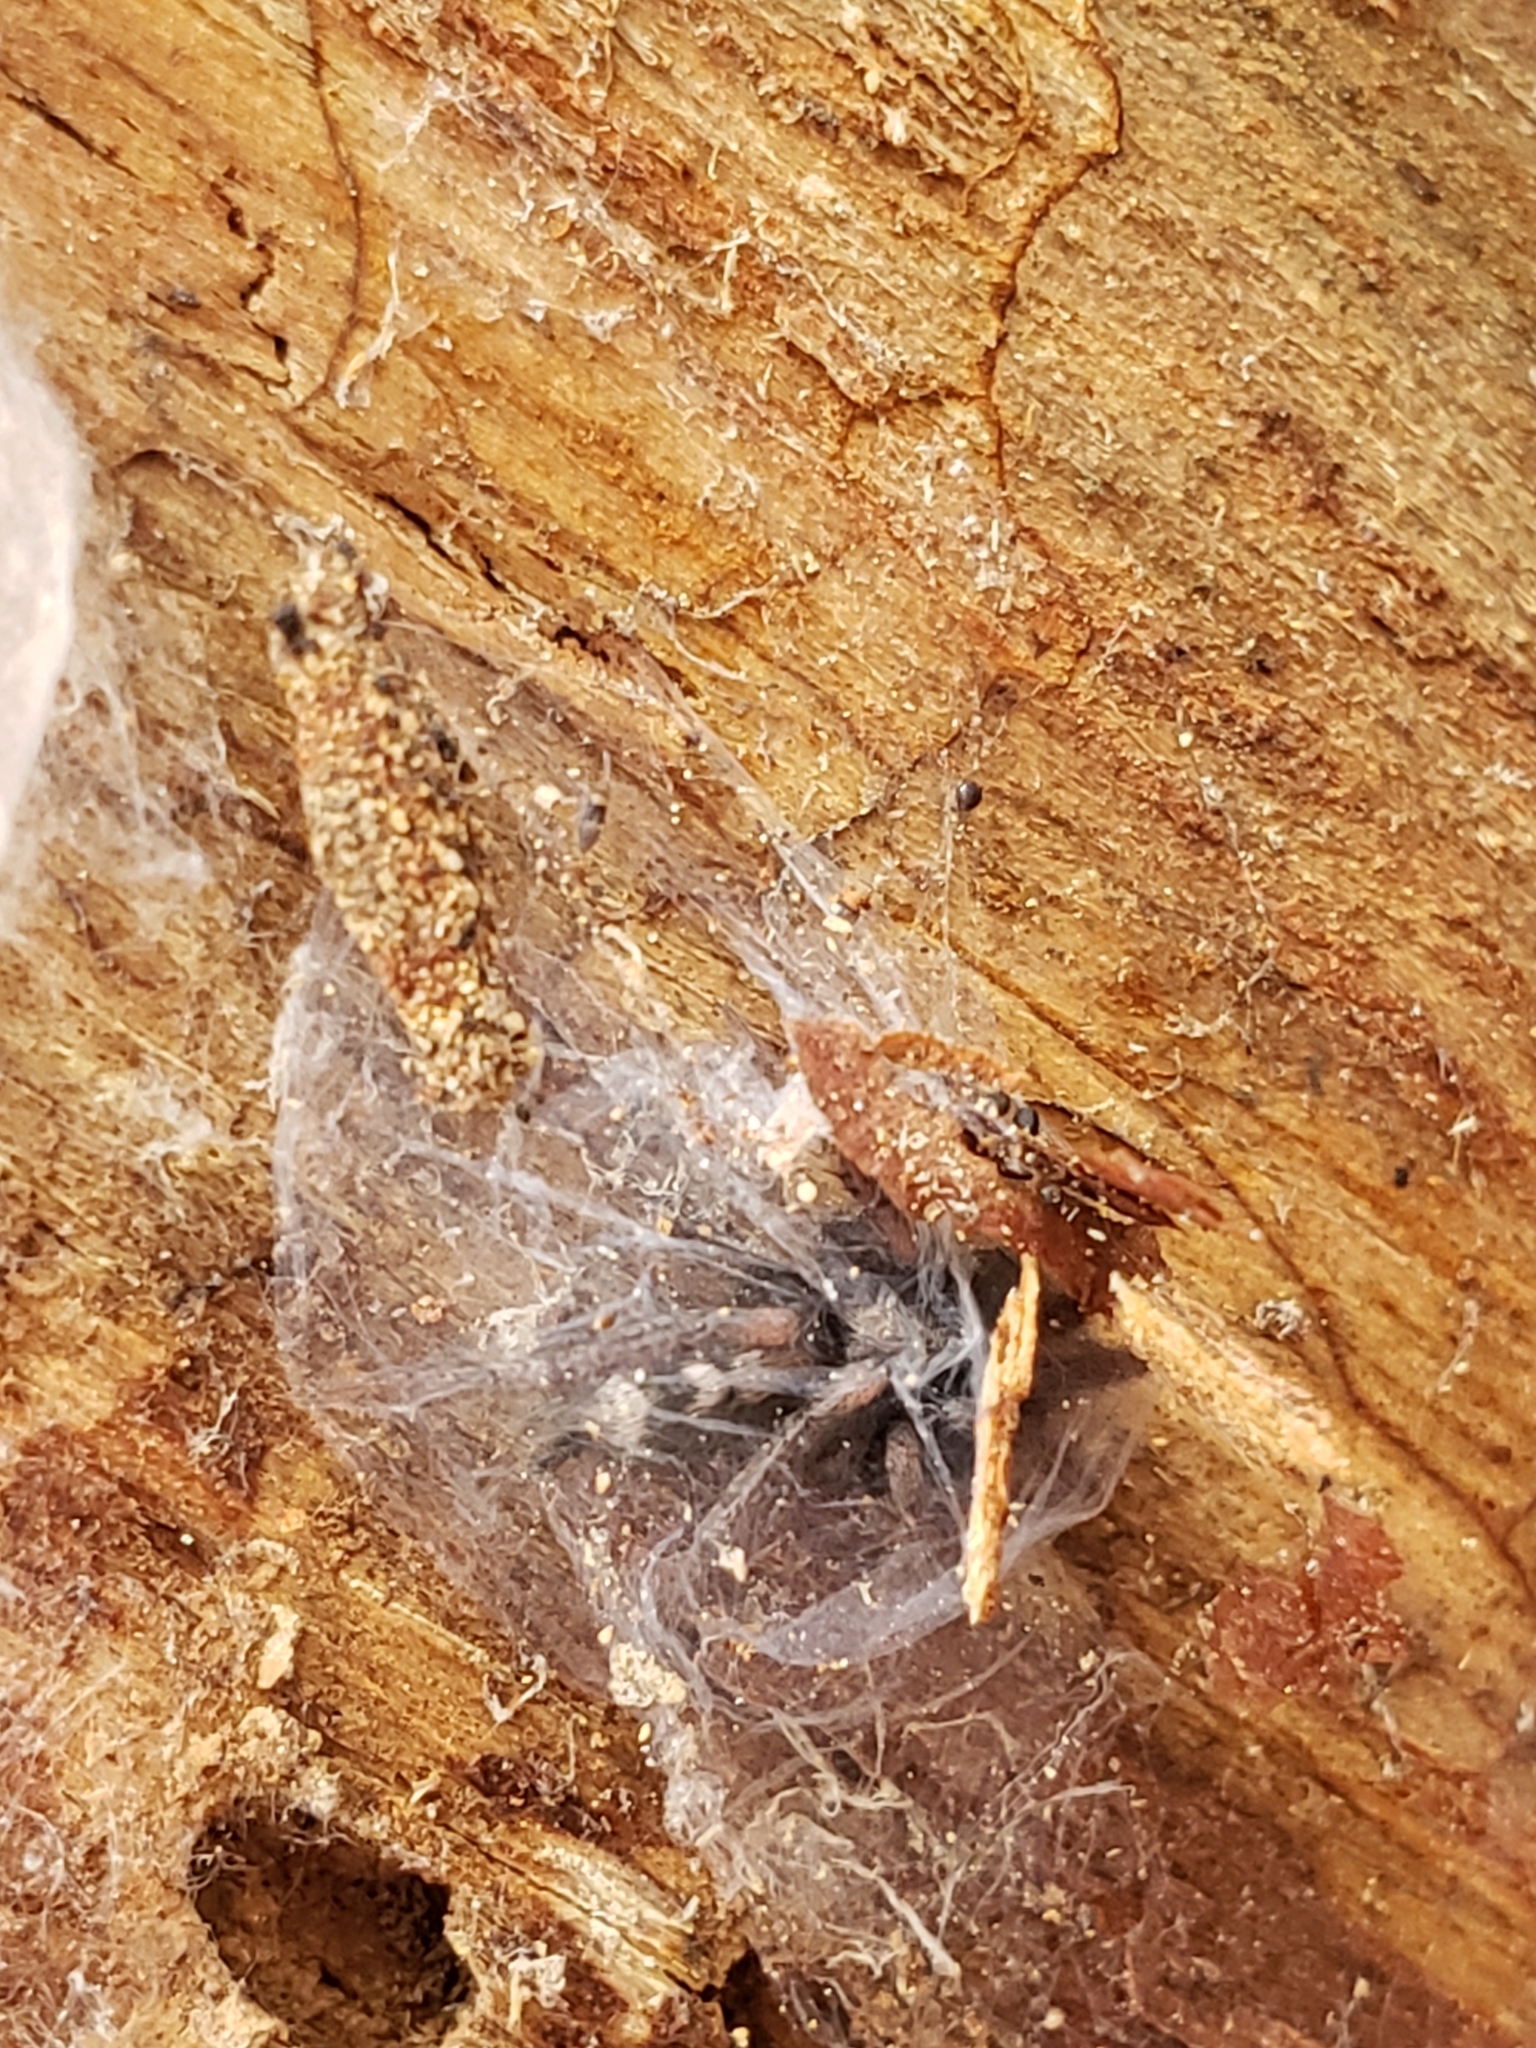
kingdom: Animalia
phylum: Arthropoda
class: Arachnida
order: Araneae
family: Gnaphosidae
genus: Herpyllus
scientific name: Herpyllus ecclesiasticus
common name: Eastern parson spider
